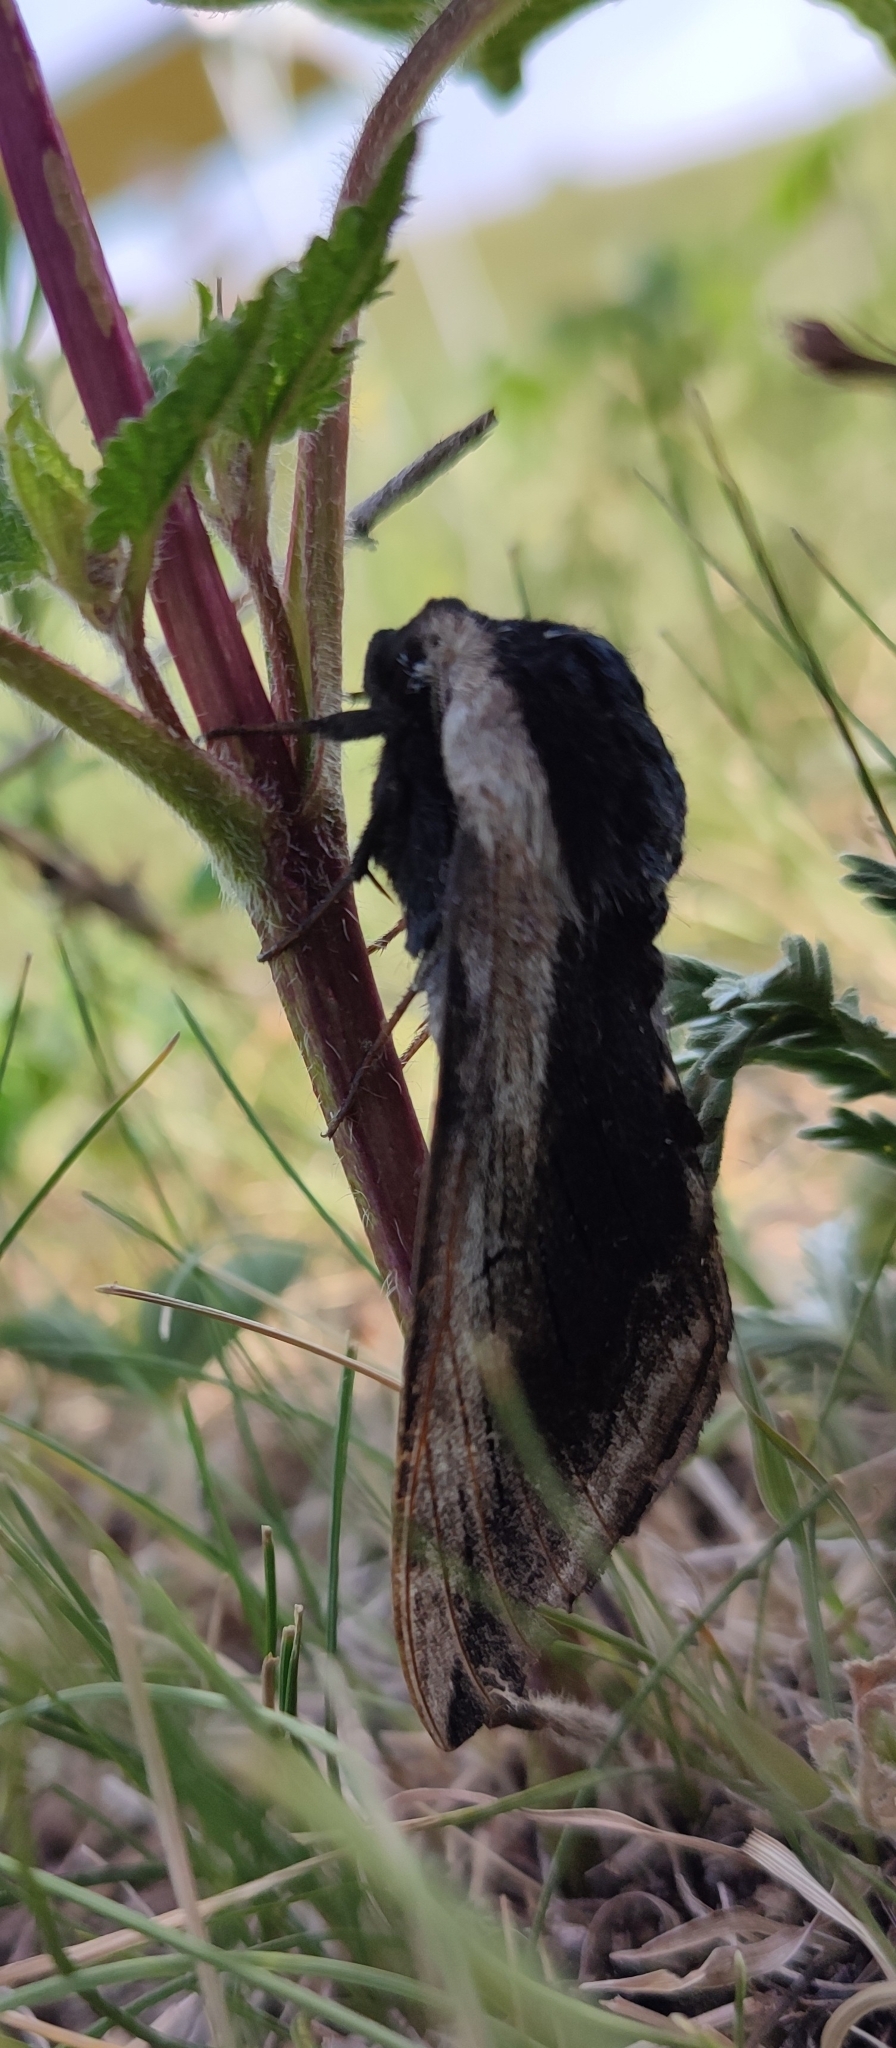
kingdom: Animalia
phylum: Arthropoda
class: Insecta
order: Lepidoptera
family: Sphingidae
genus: Sphinx
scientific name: Sphinx ligustri
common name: Privet hawk-moth
